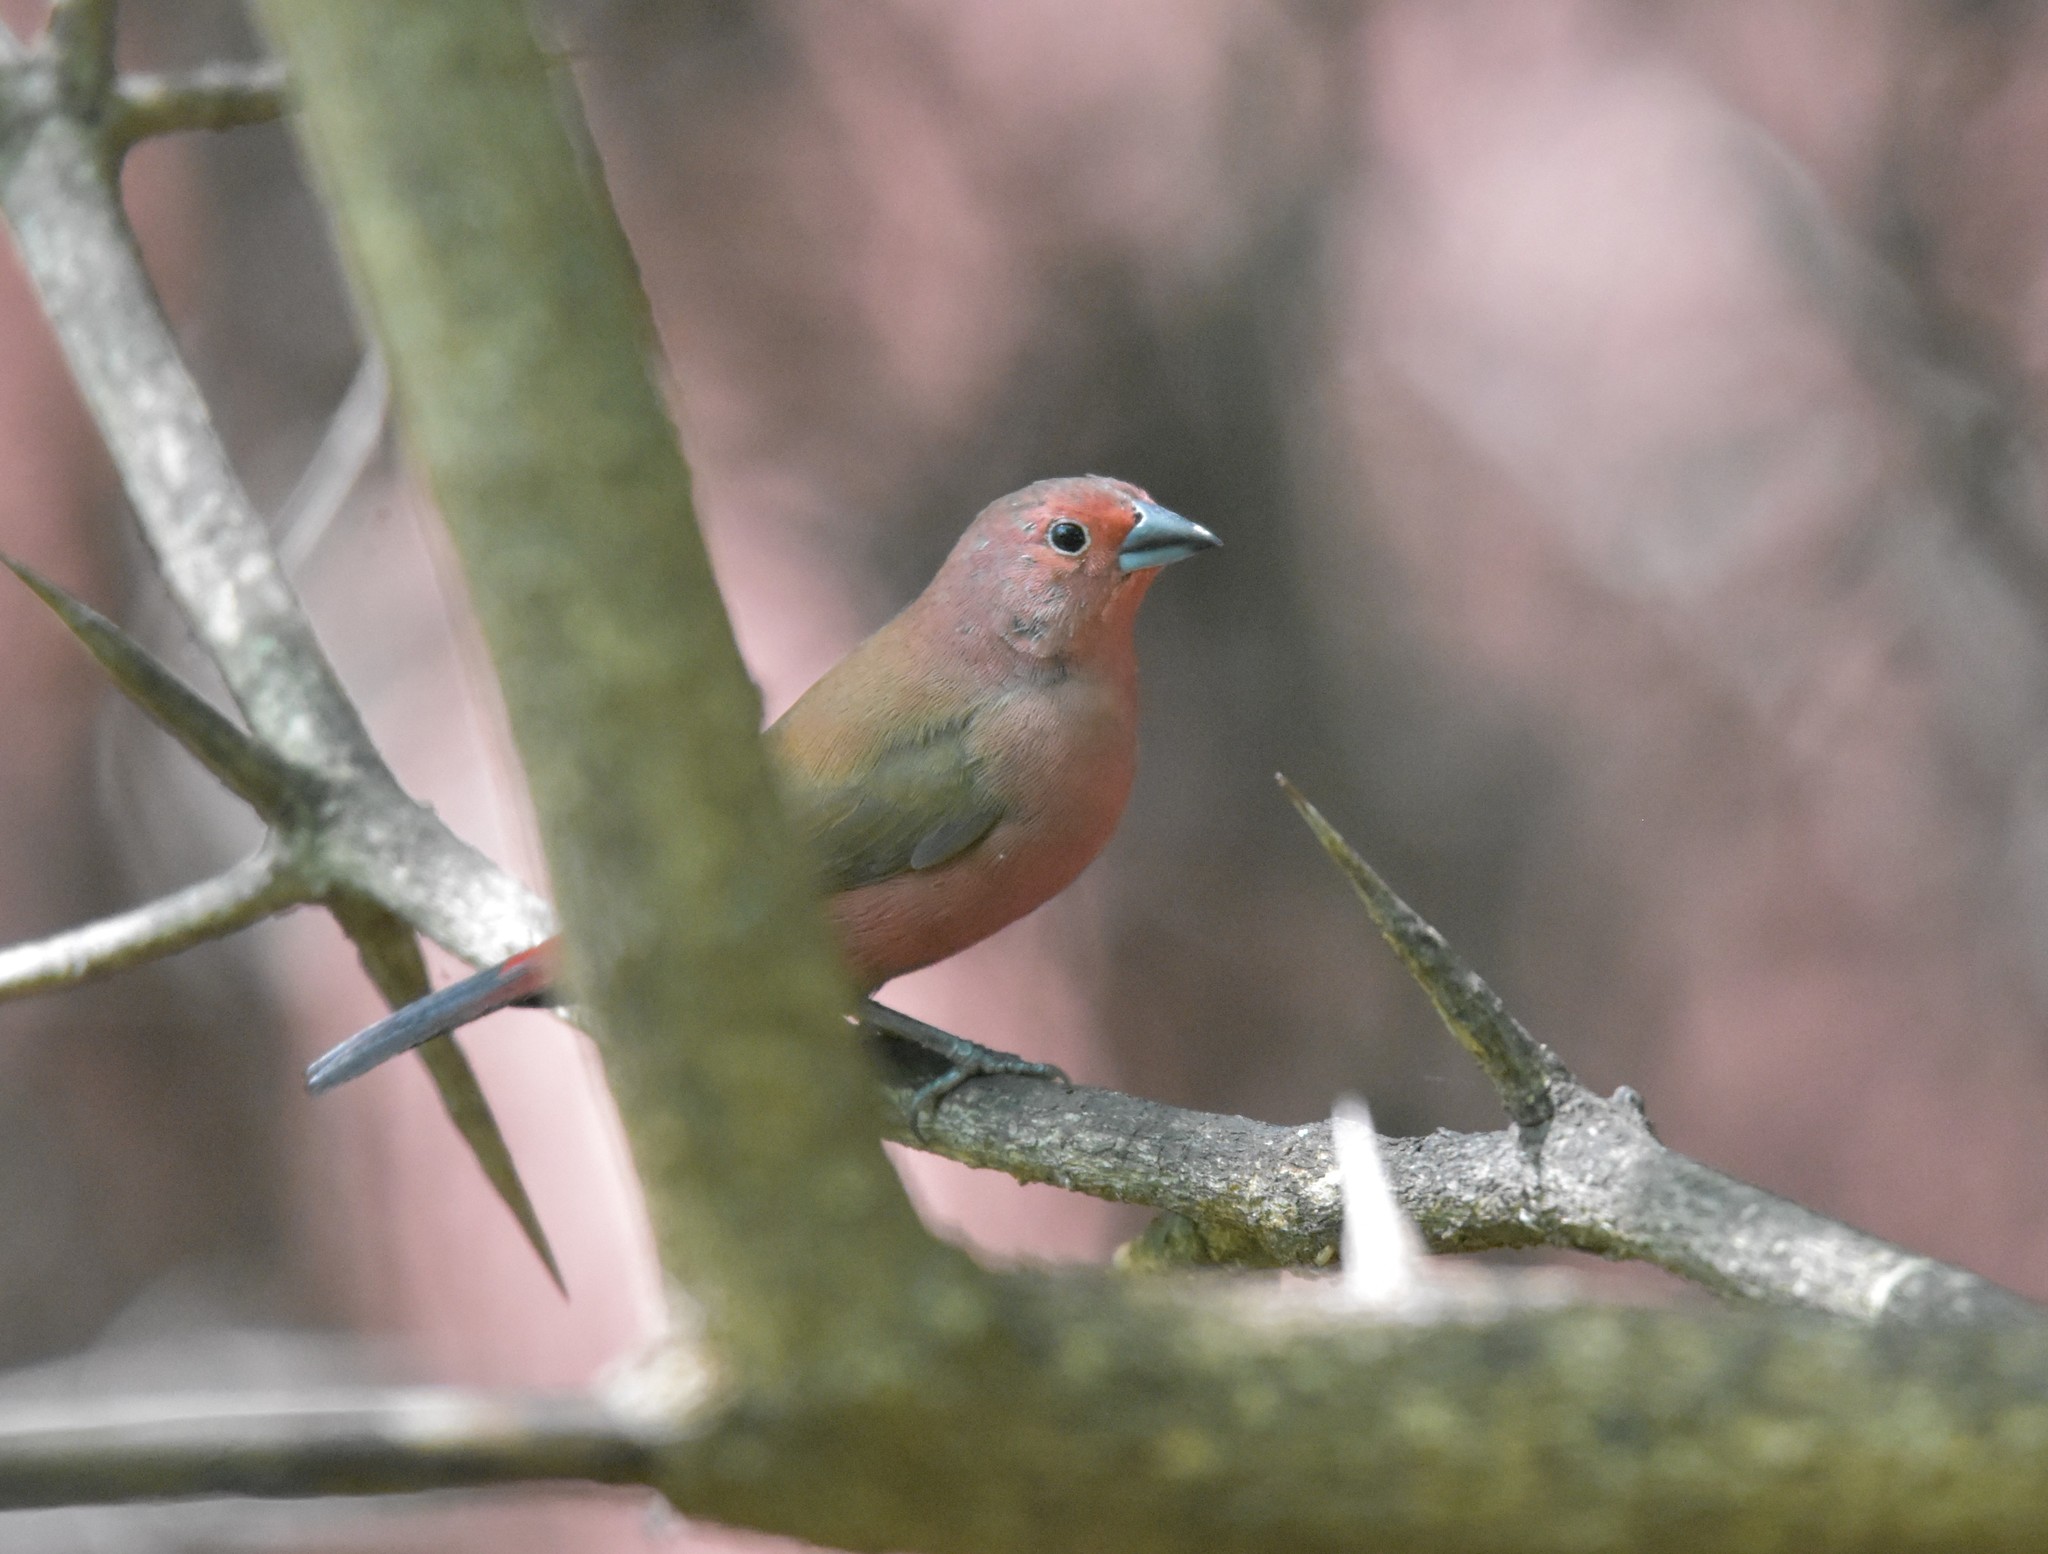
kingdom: Animalia
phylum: Chordata
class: Aves
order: Passeriformes
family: Estrildidae
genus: Lagonosticta
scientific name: Lagonosticta rhodopareia
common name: Jameson's firefinch
